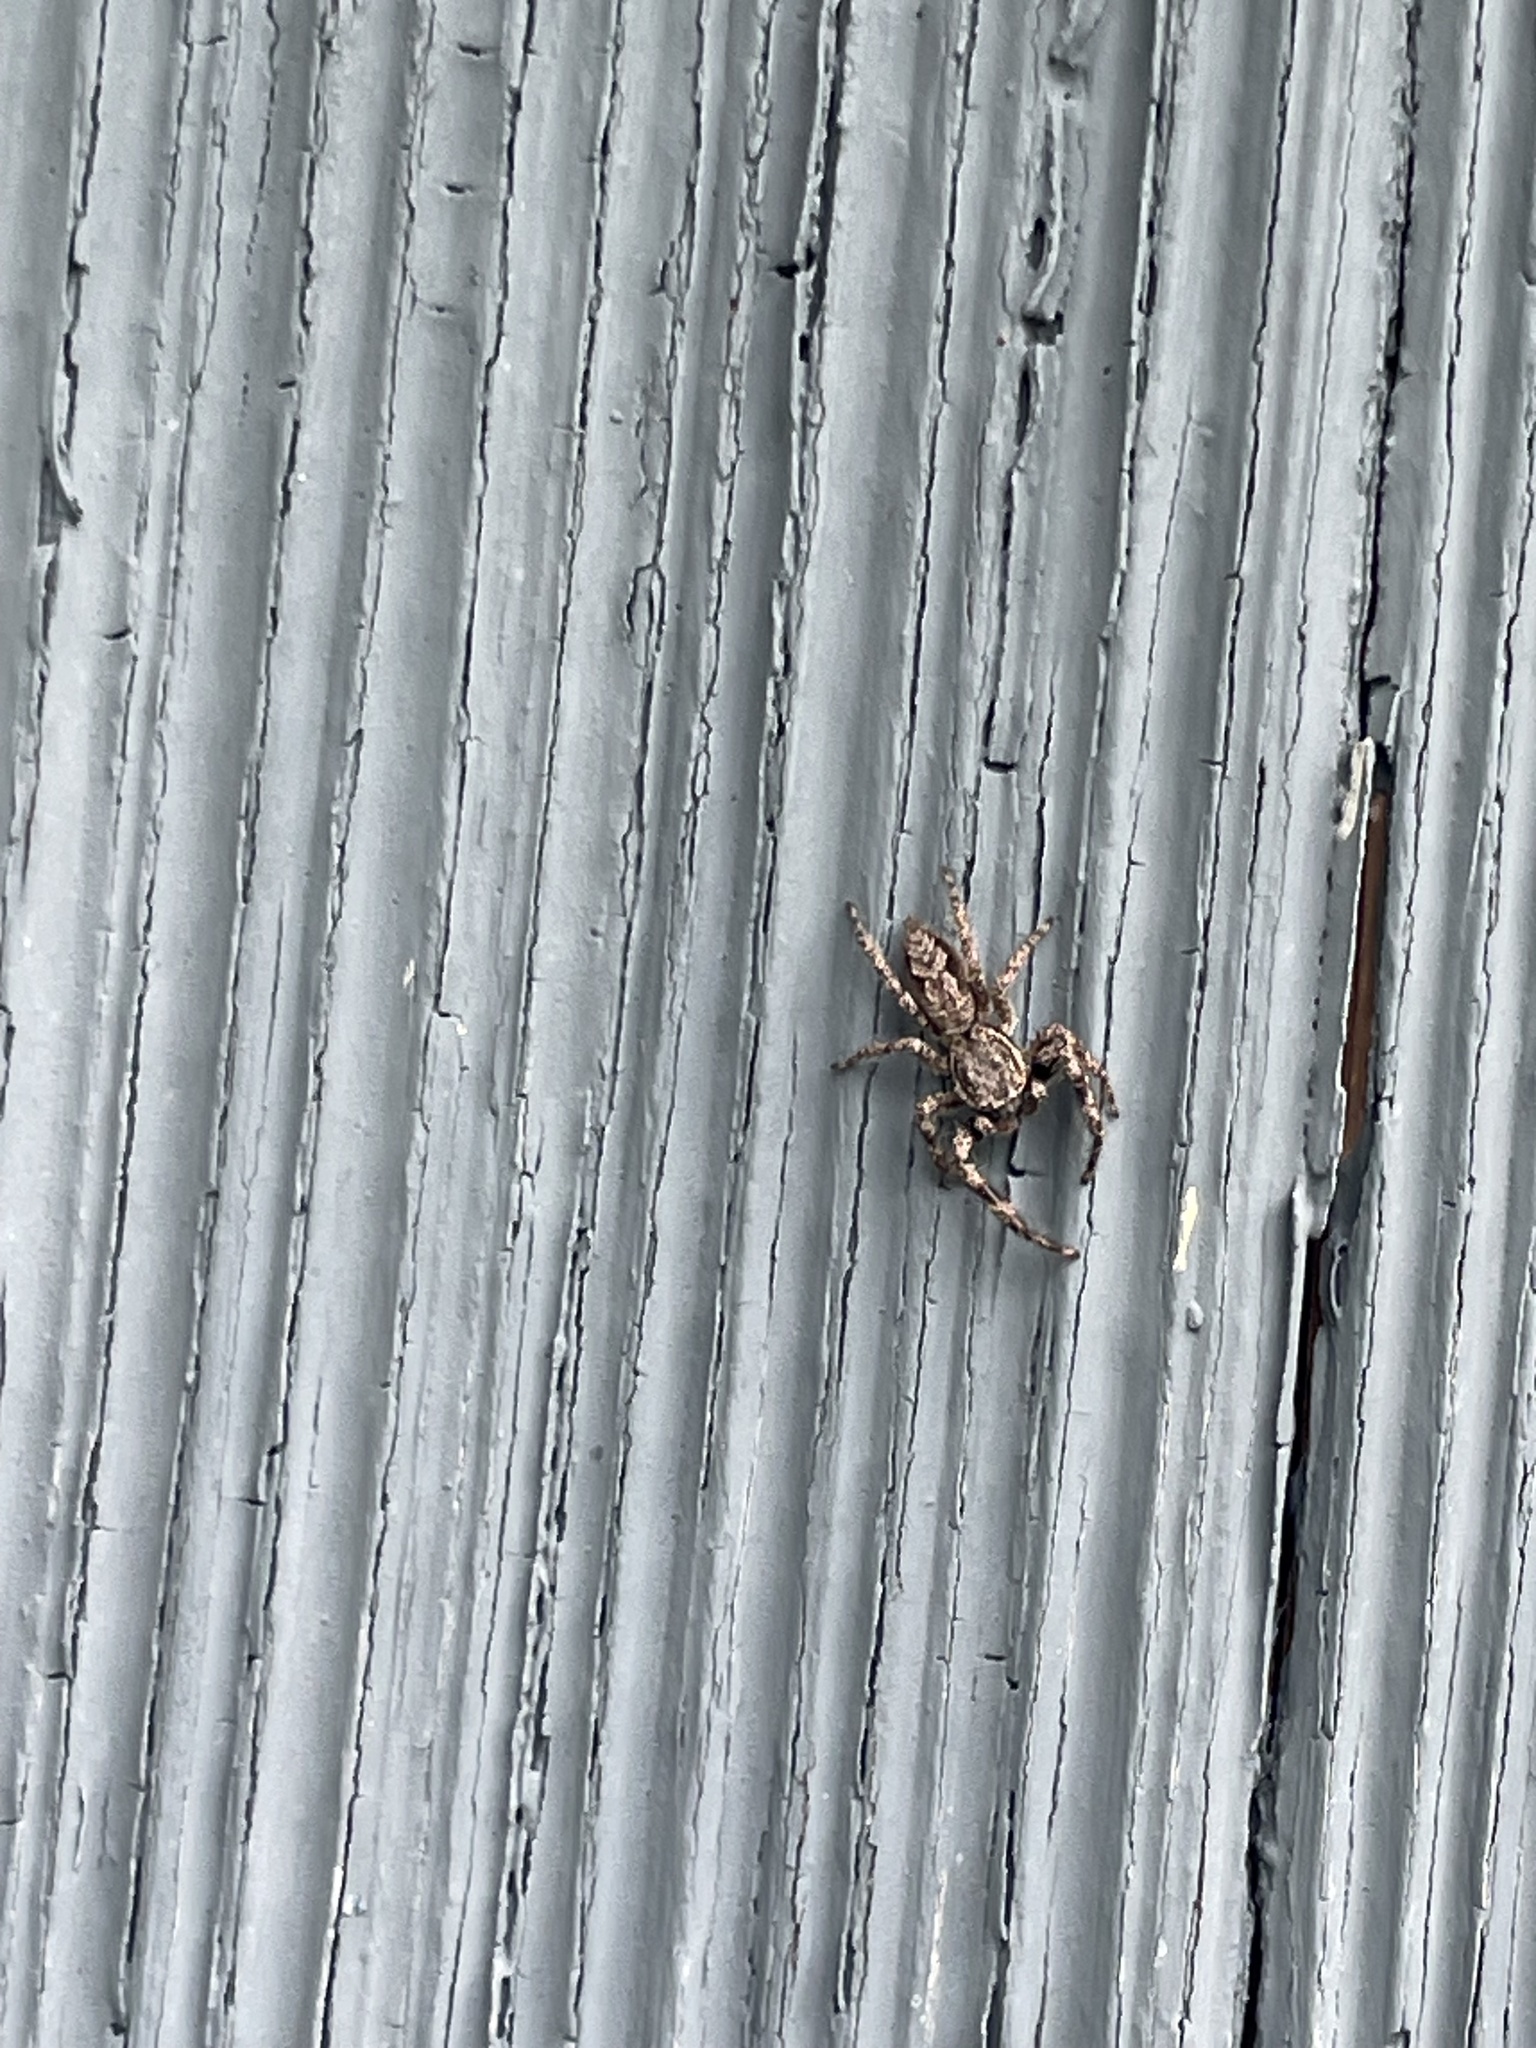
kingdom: Animalia
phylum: Arthropoda
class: Arachnida
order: Araneae
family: Salticidae
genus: Platycryptus
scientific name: Platycryptus undatus
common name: Tan jumping spider
